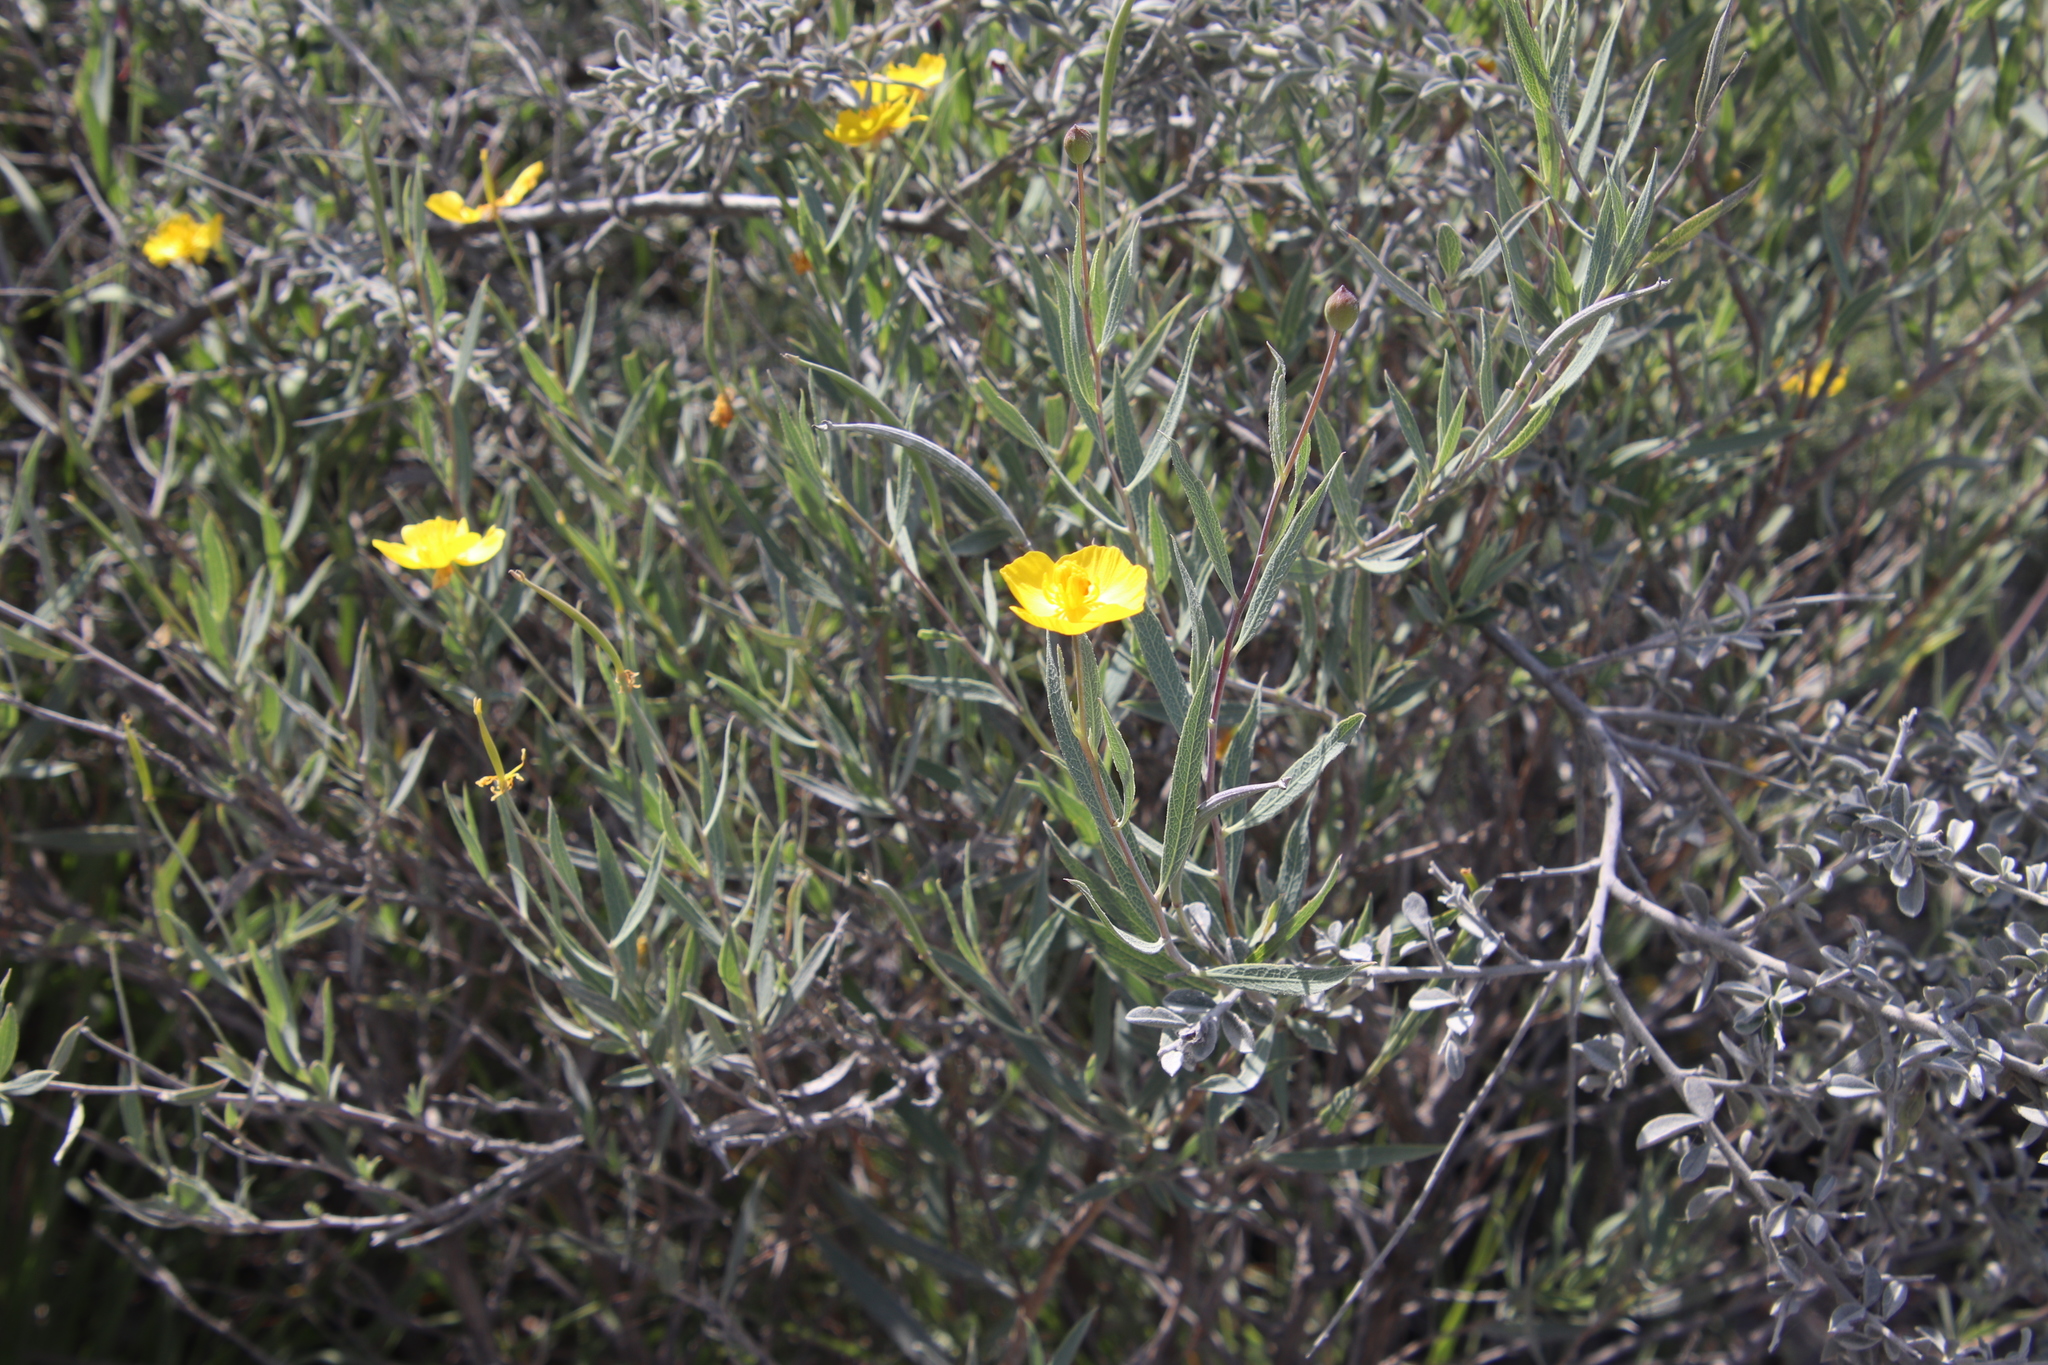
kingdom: Plantae
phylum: Tracheophyta
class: Magnoliopsida
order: Ranunculales
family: Papaveraceae
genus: Dendromecon
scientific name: Dendromecon rigida
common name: Tree poppy
